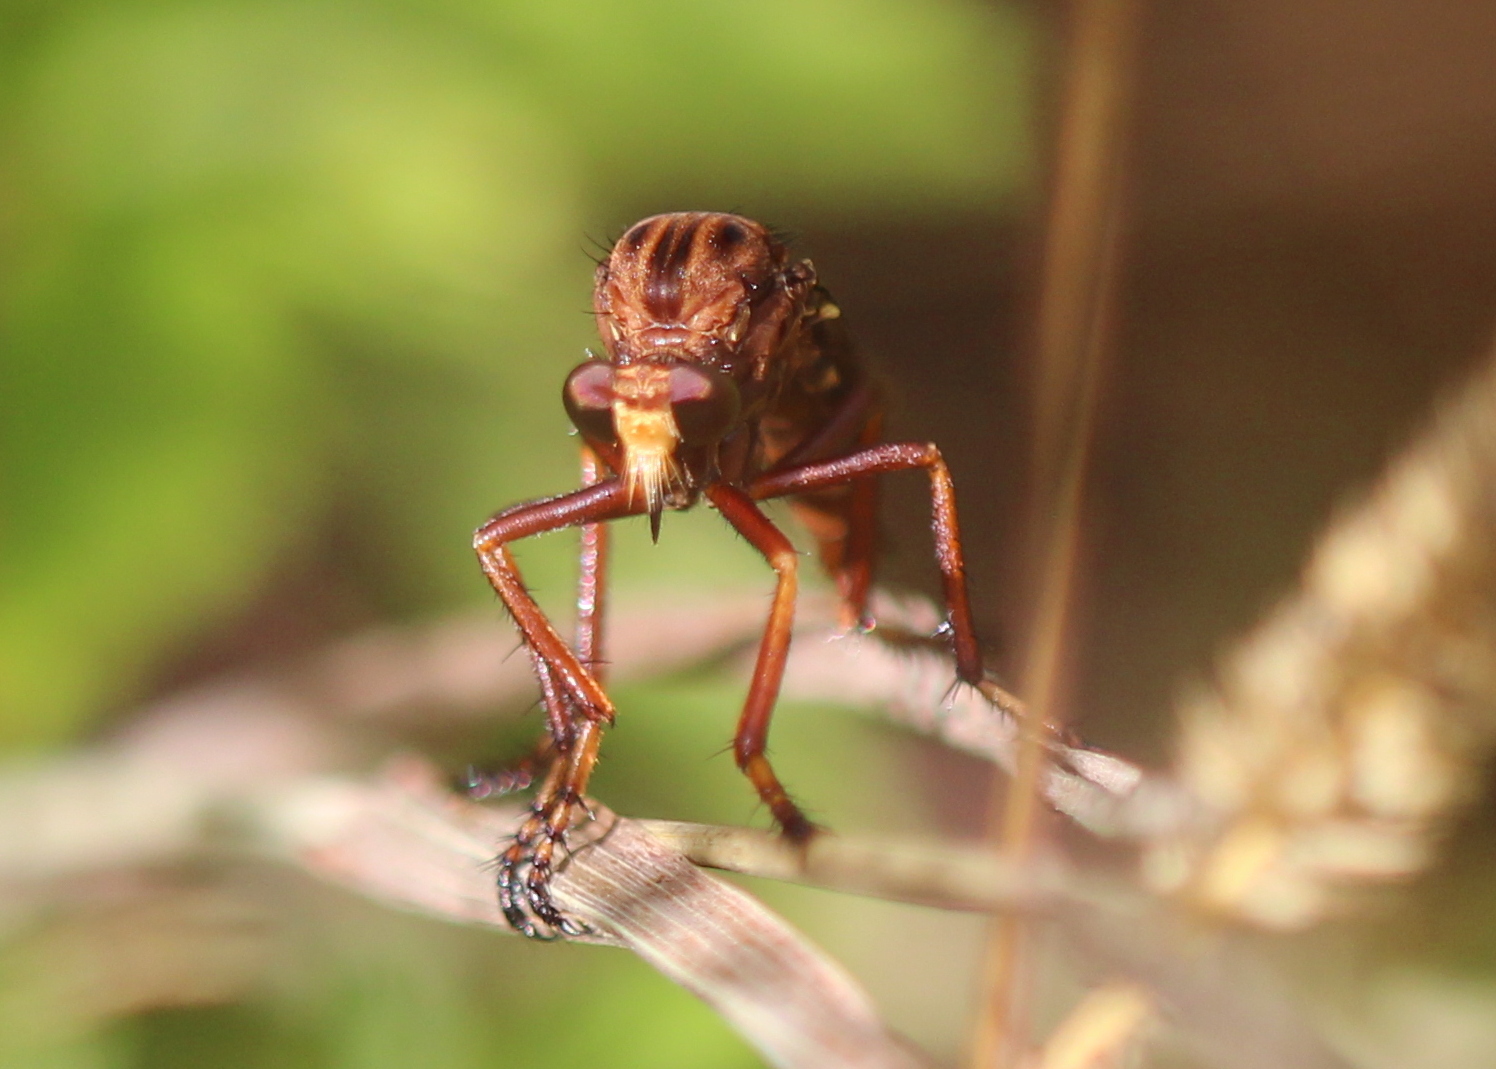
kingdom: Animalia
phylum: Arthropoda
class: Insecta
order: Diptera
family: Asilidae
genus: Diogmites
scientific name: Diogmites basalis
